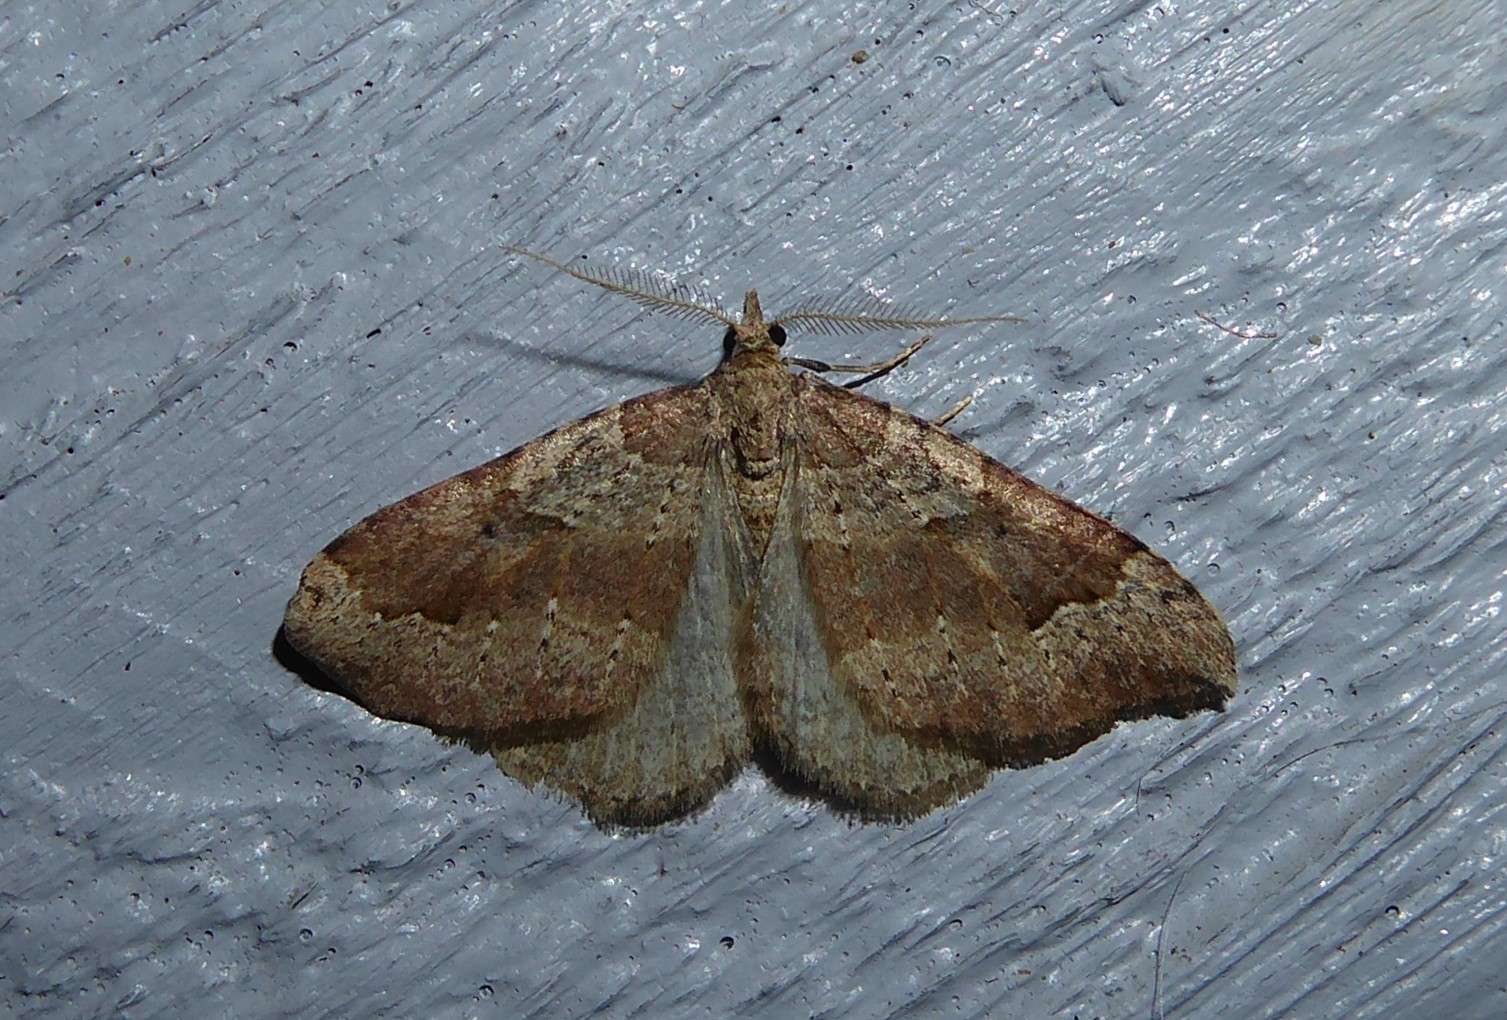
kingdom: Animalia
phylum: Arthropoda
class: Insecta
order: Lepidoptera
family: Geometridae
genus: Epyaxa
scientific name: Epyaxa rosearia
